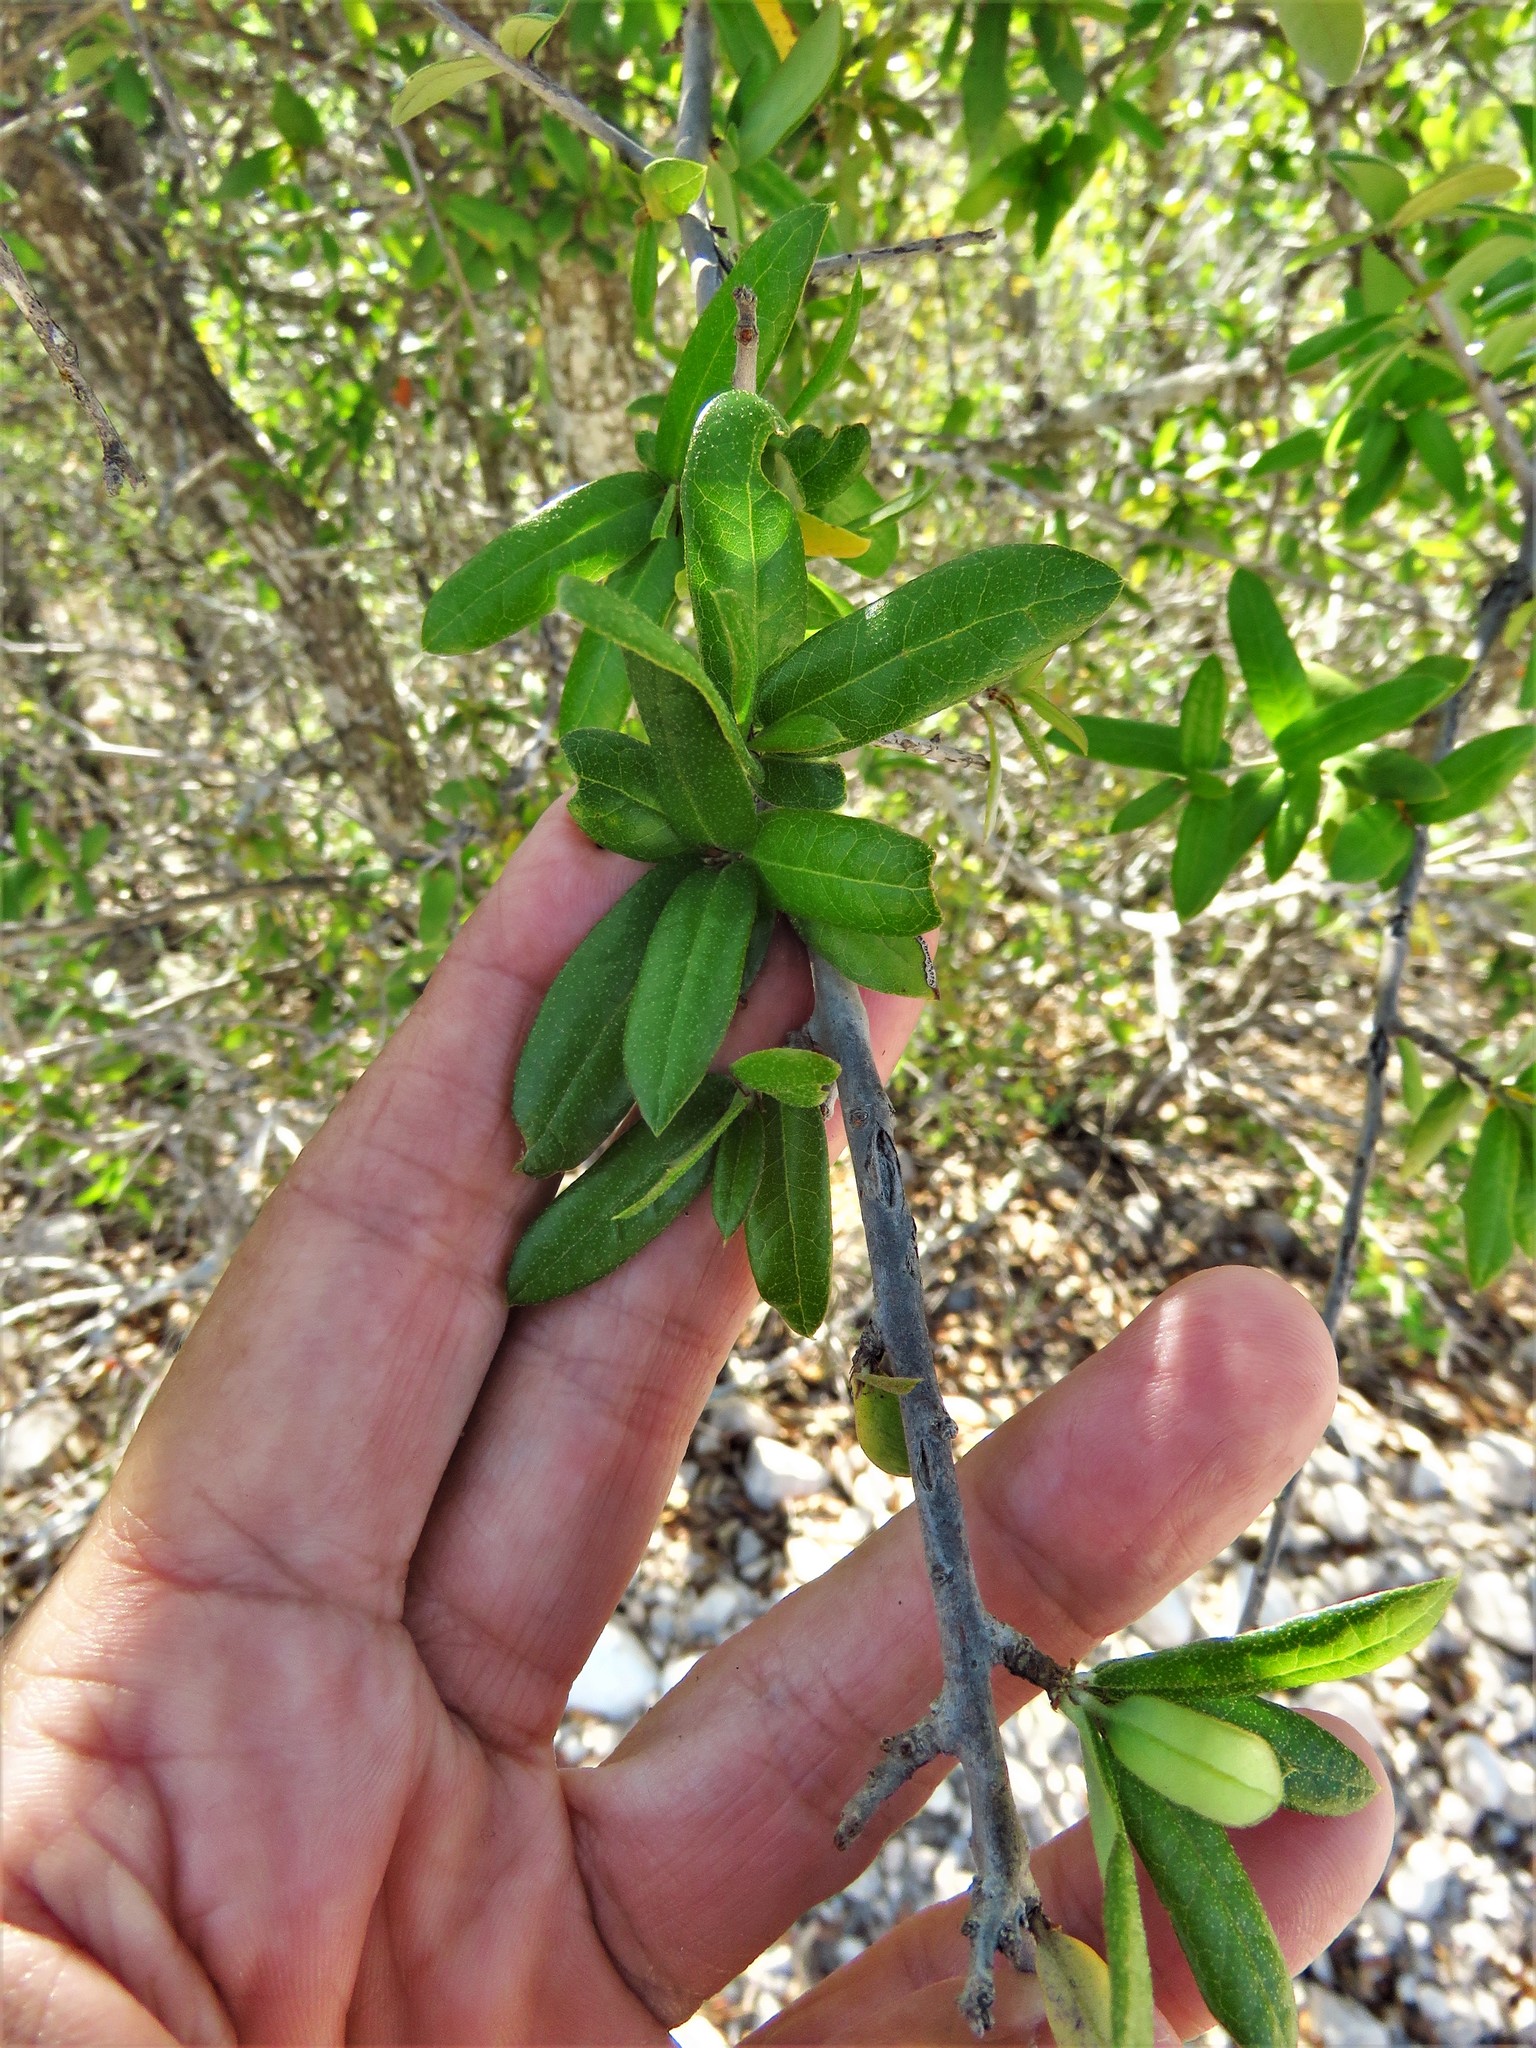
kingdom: Plantae
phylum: Tracheophyta
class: Magnoliopsida
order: Fagales
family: Fagaceae
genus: Quercus
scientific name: Quercus fusiformis
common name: Texas live oak
